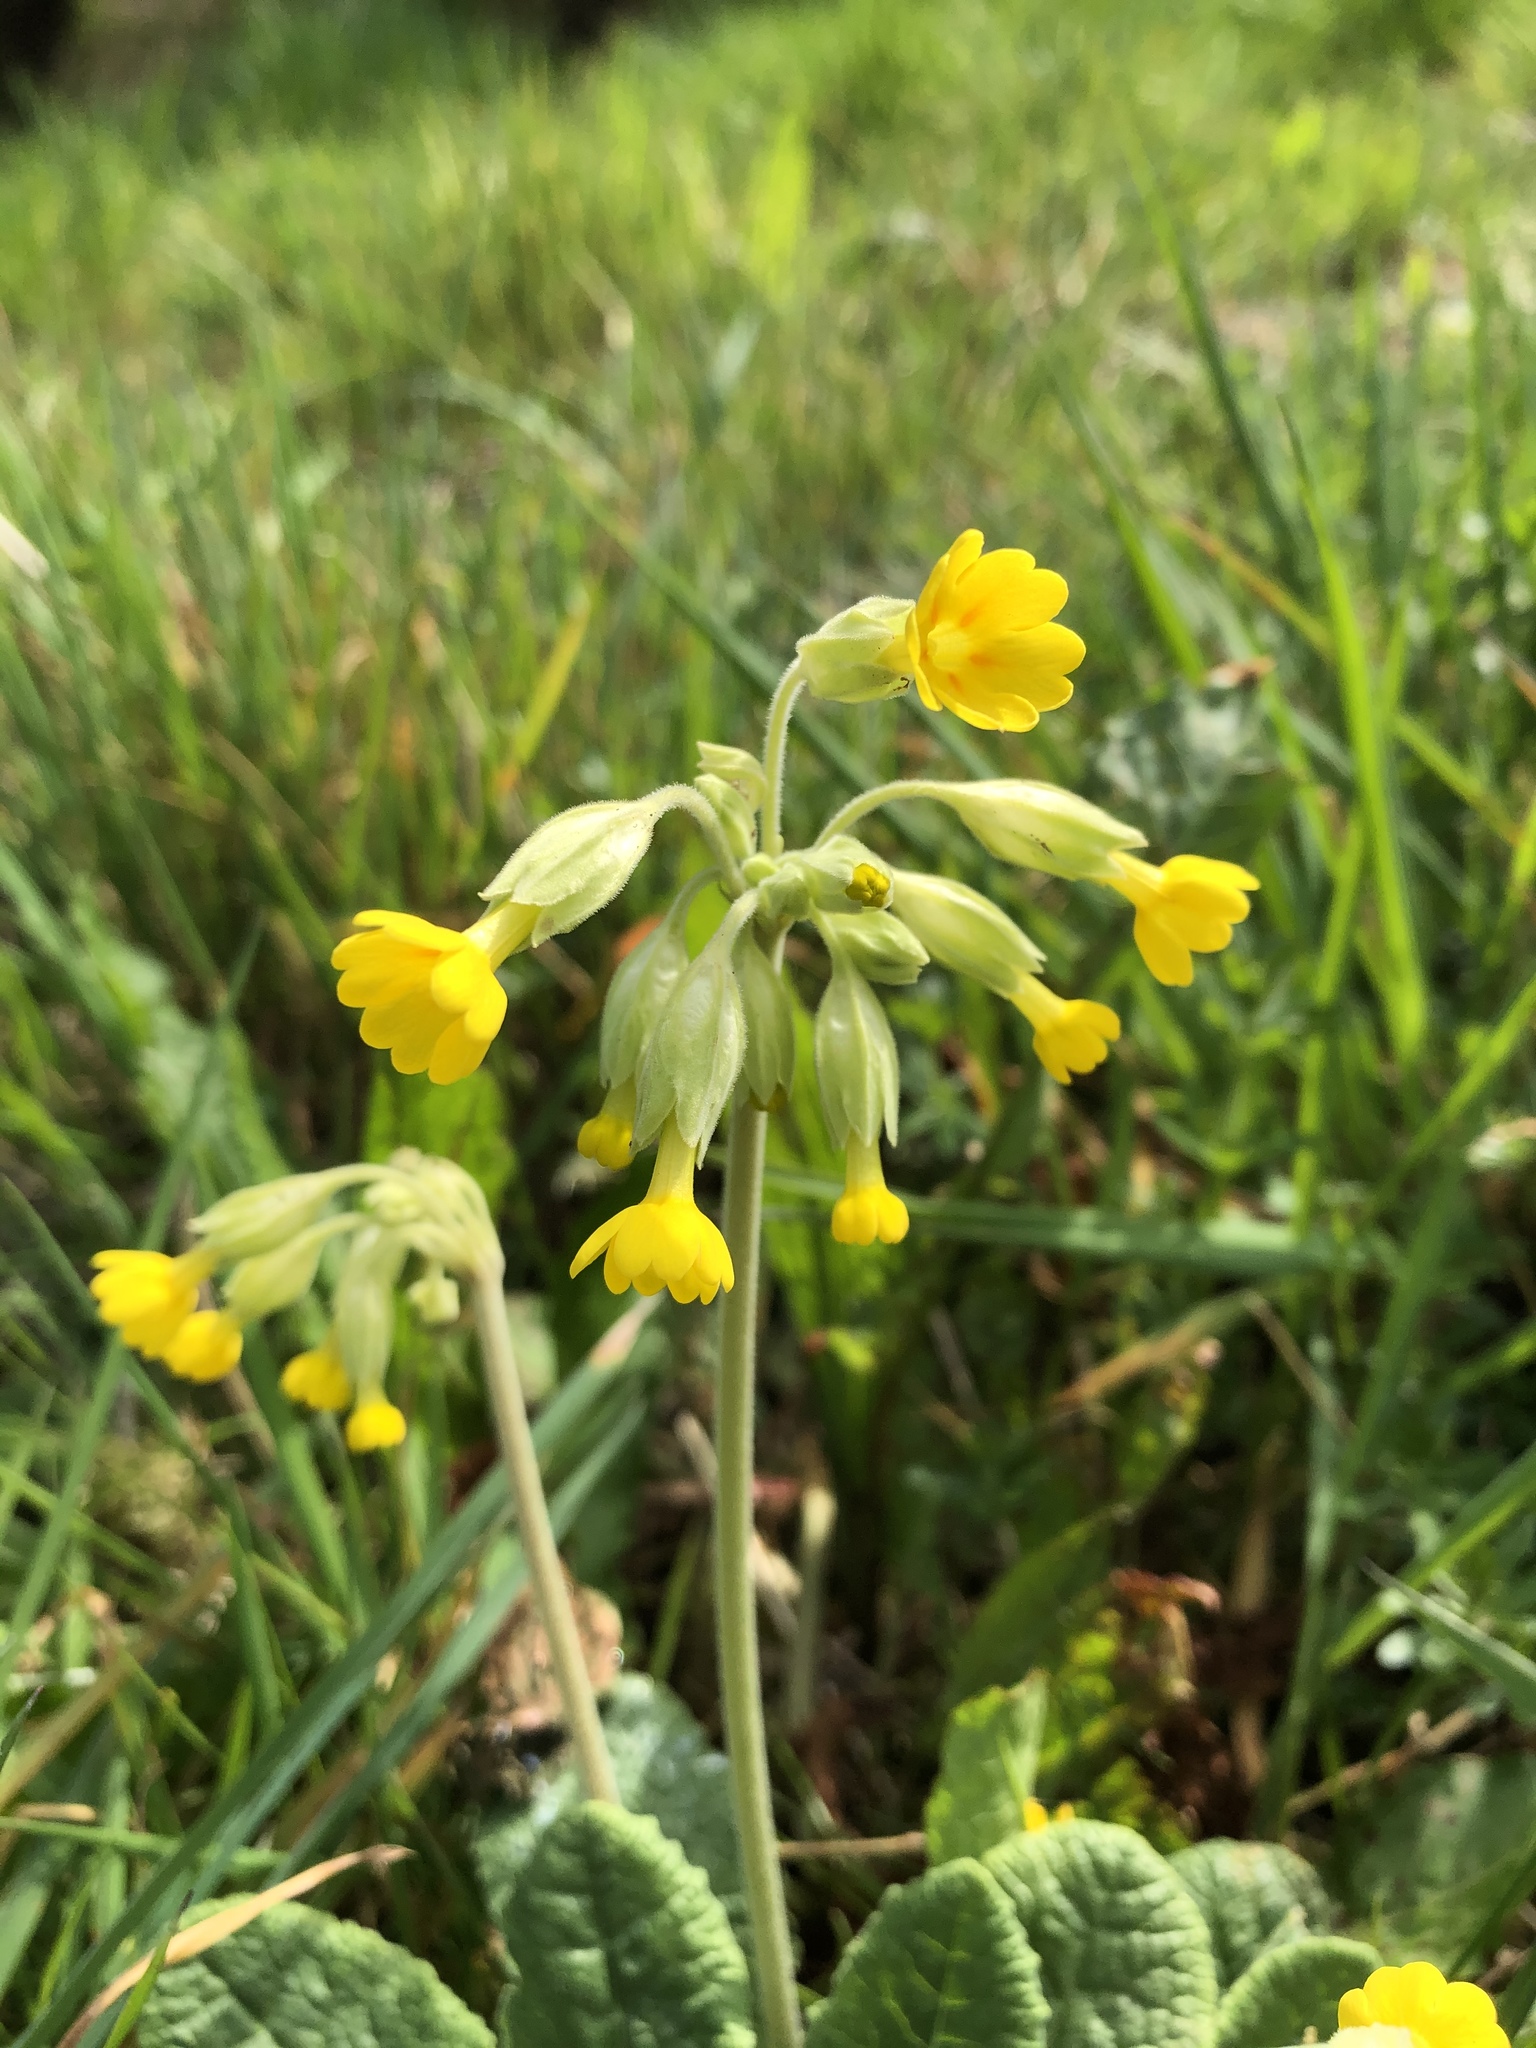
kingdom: Plantae
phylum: Tracheophyta
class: Magnoliopsida
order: Ericales
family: Primulaceae
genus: Primula
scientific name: Primula veris
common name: Cowslip
